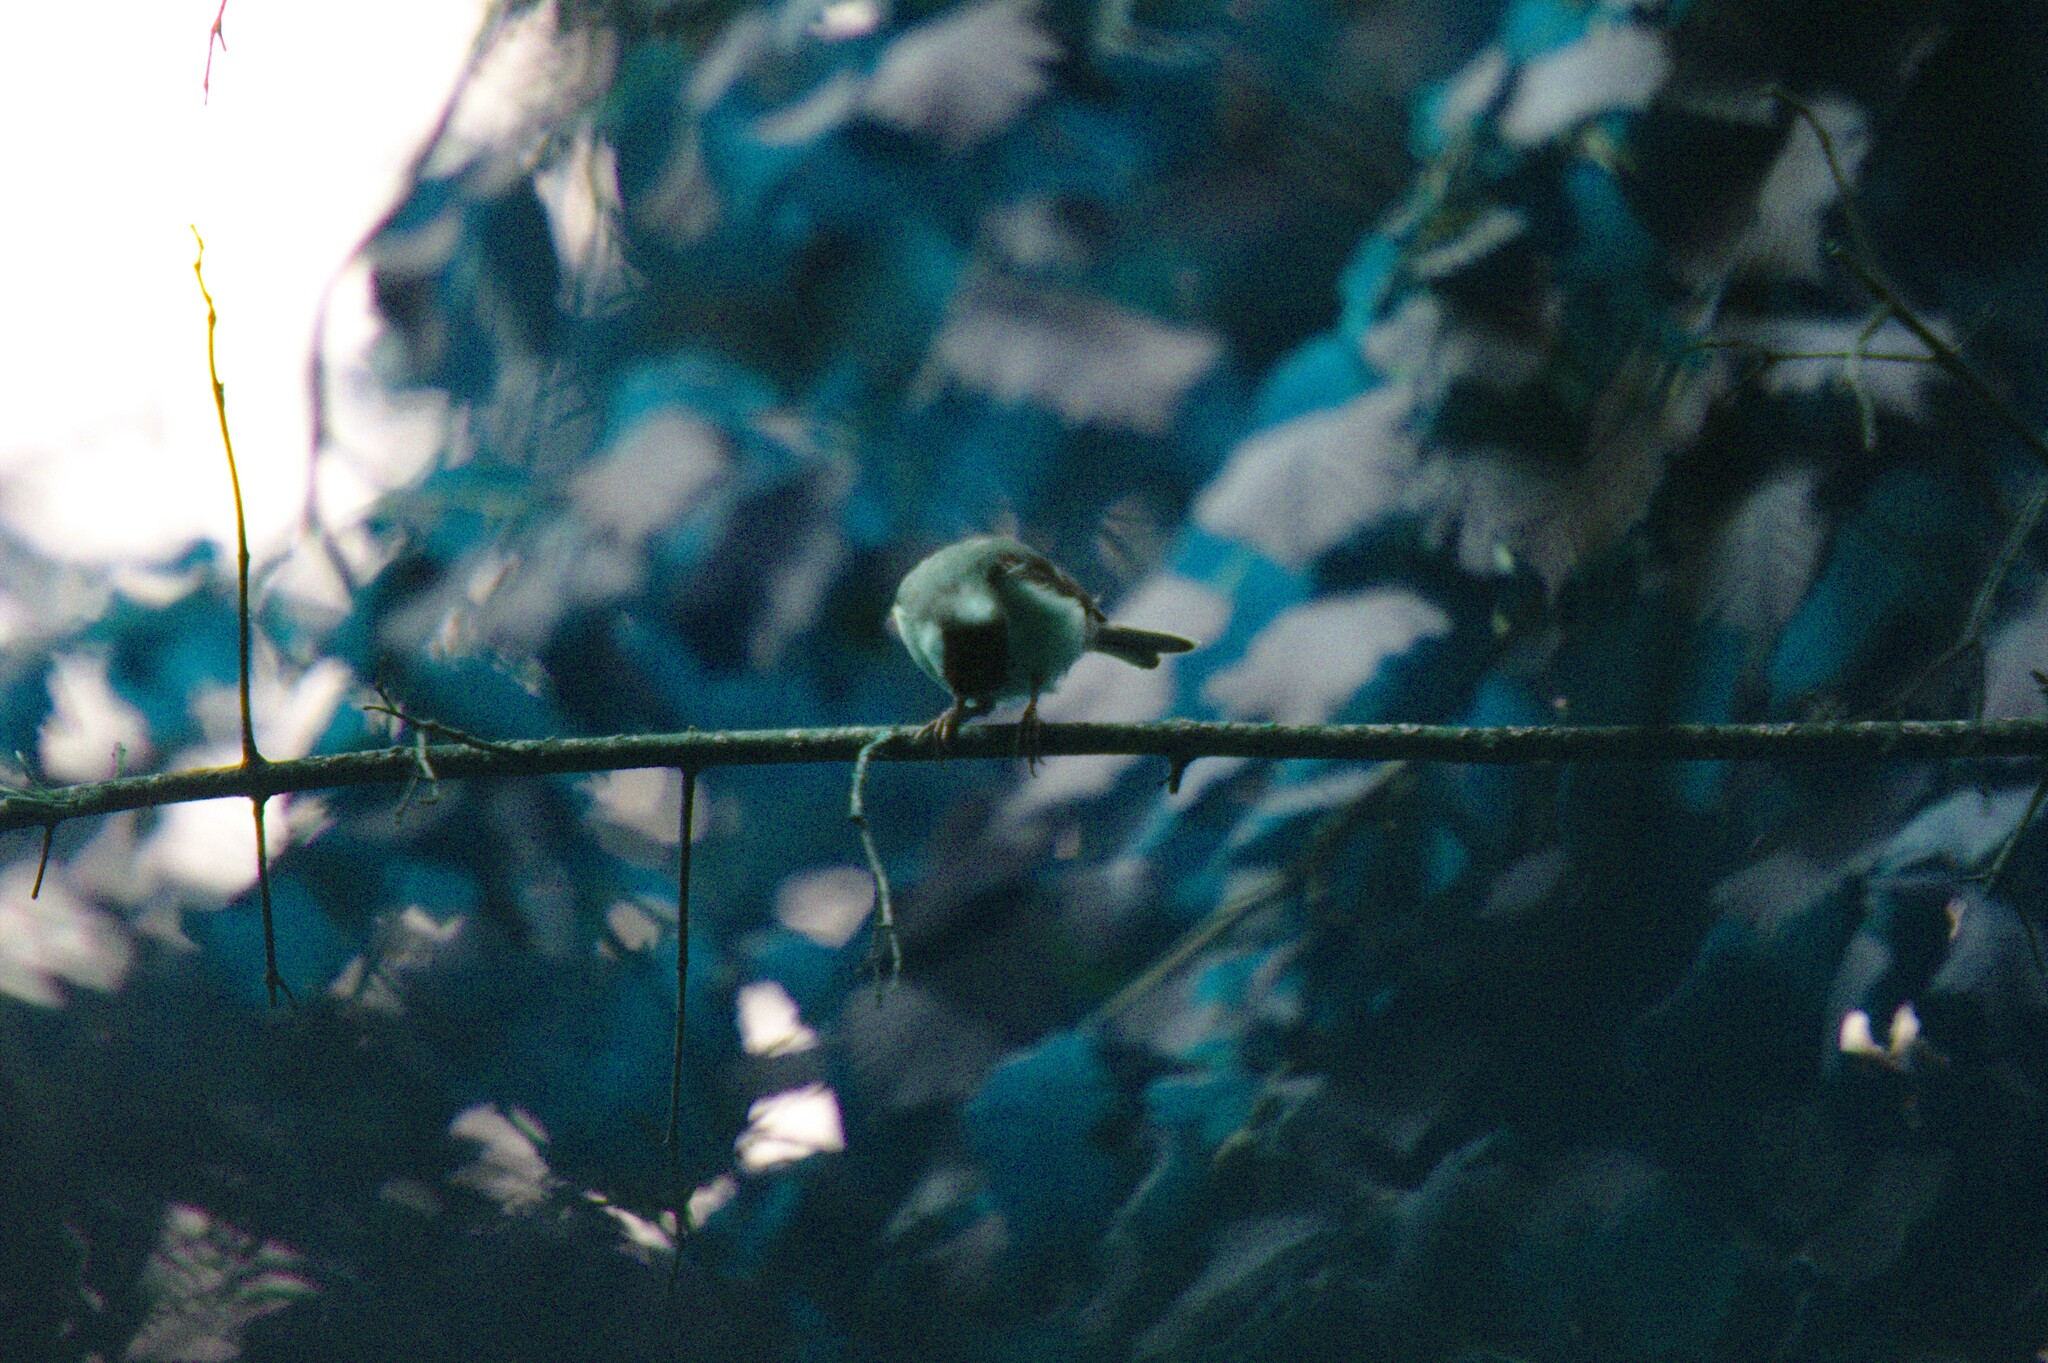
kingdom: Animalia
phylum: Chordata
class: Aves
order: Passeriformes
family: Paridae
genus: Parus
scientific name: Parus major
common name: Great tit
